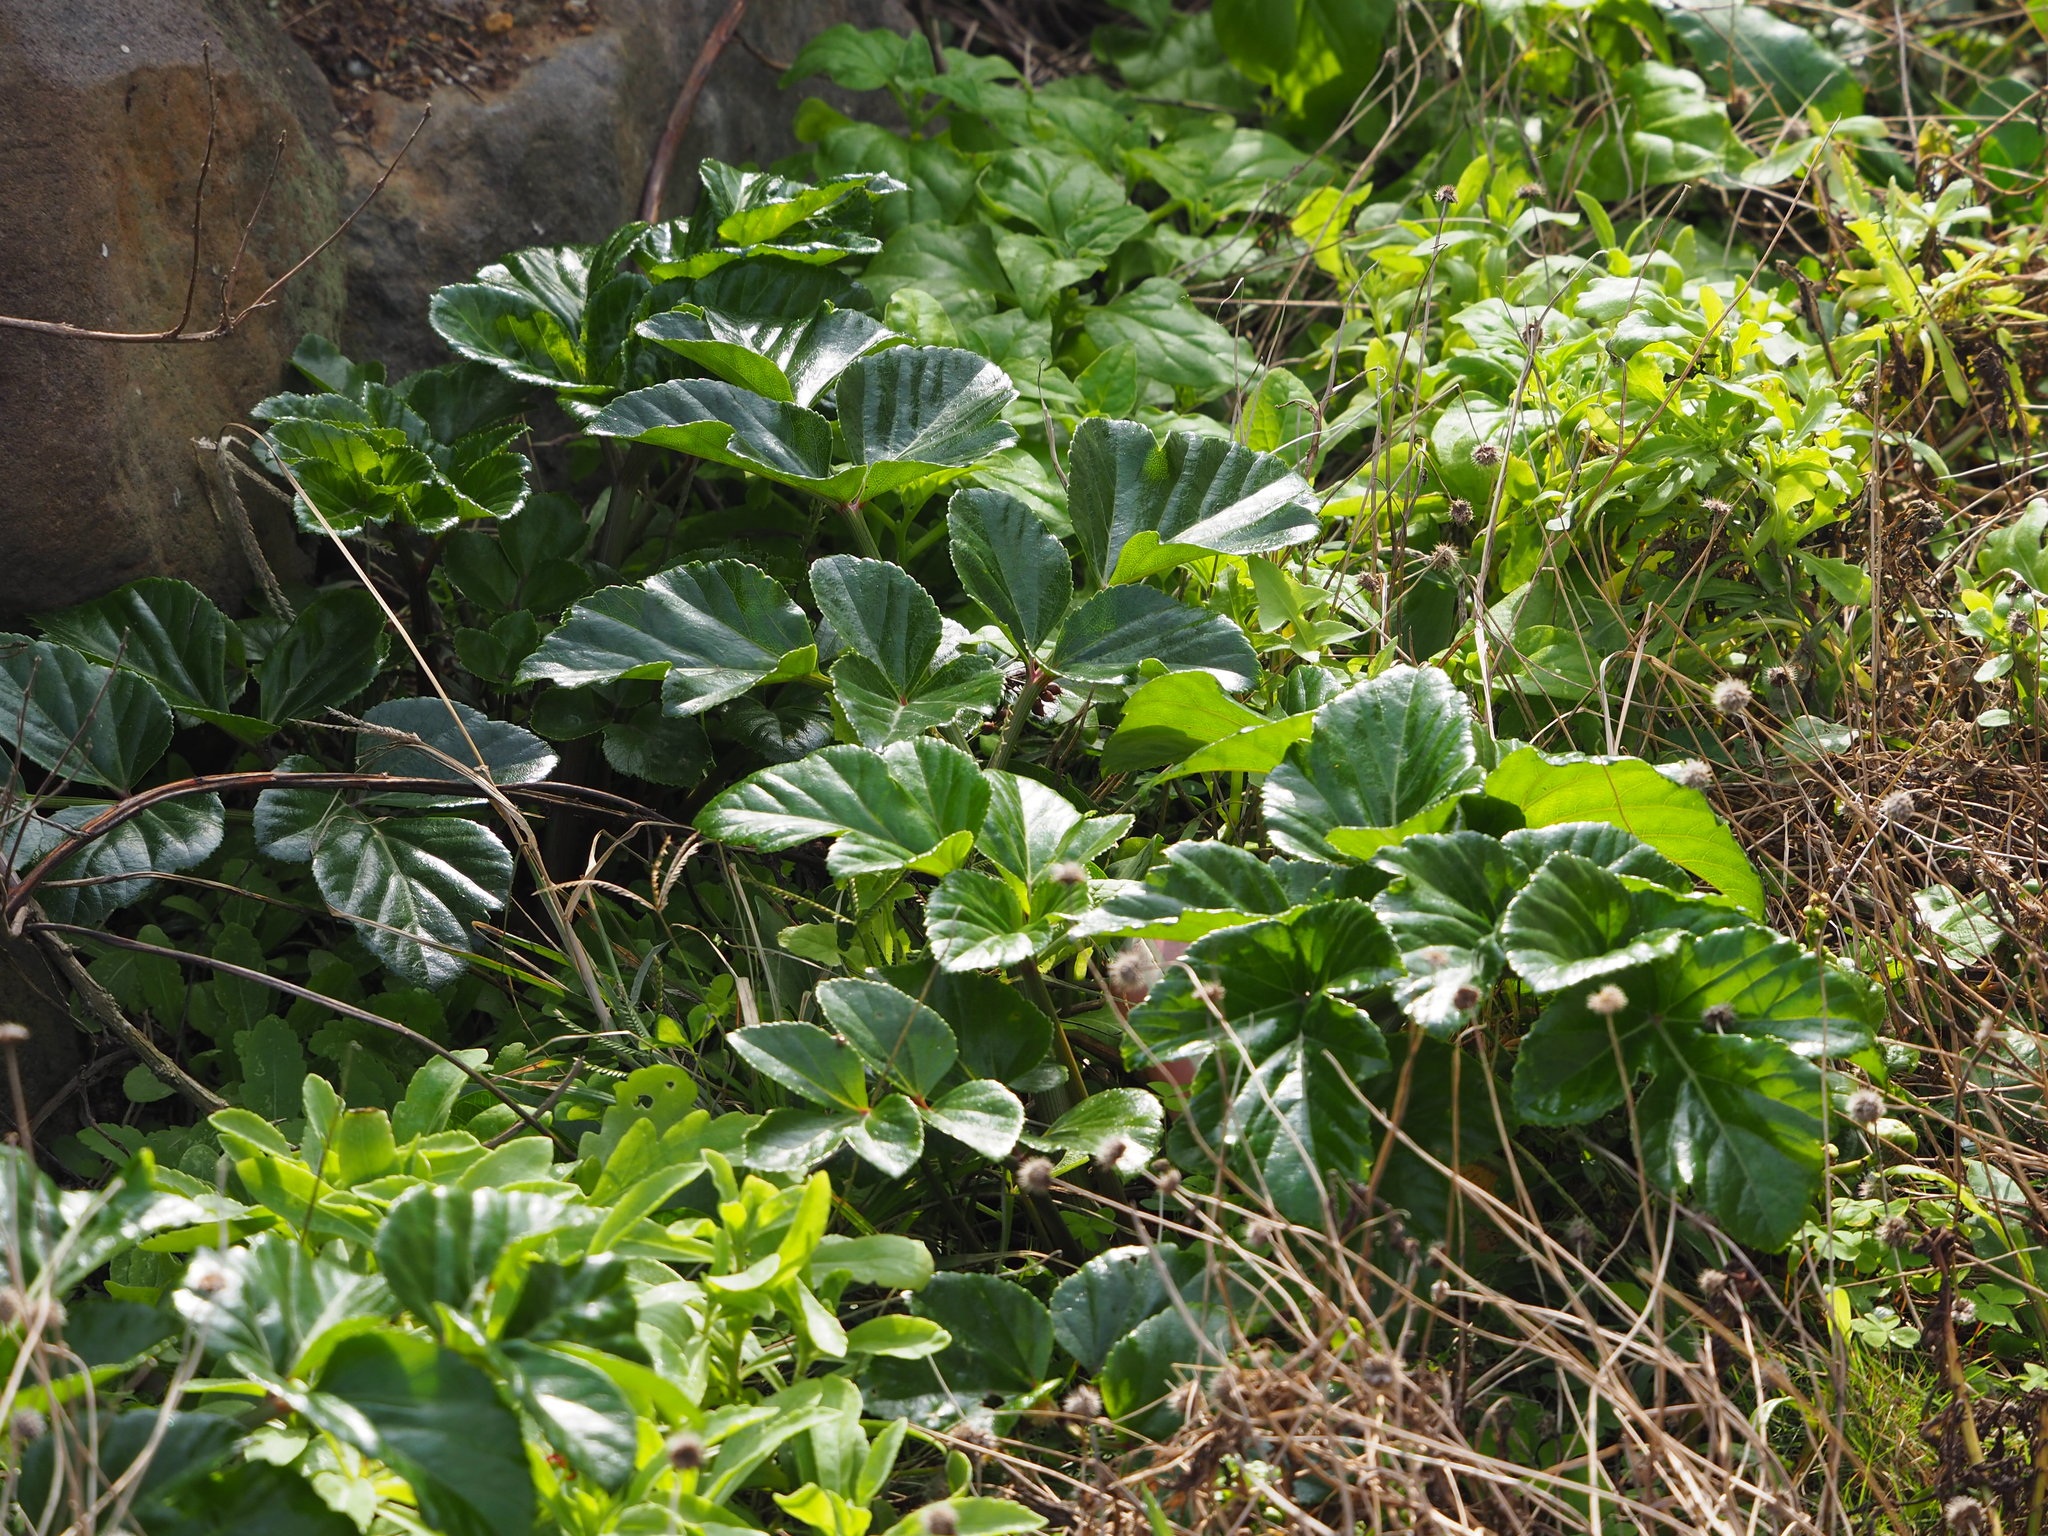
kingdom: Plantae
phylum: Tracheophyta
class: Magnoliopsida
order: Apiales
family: Apiaceae
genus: Angelica
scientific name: Angelica hirsutiflora
